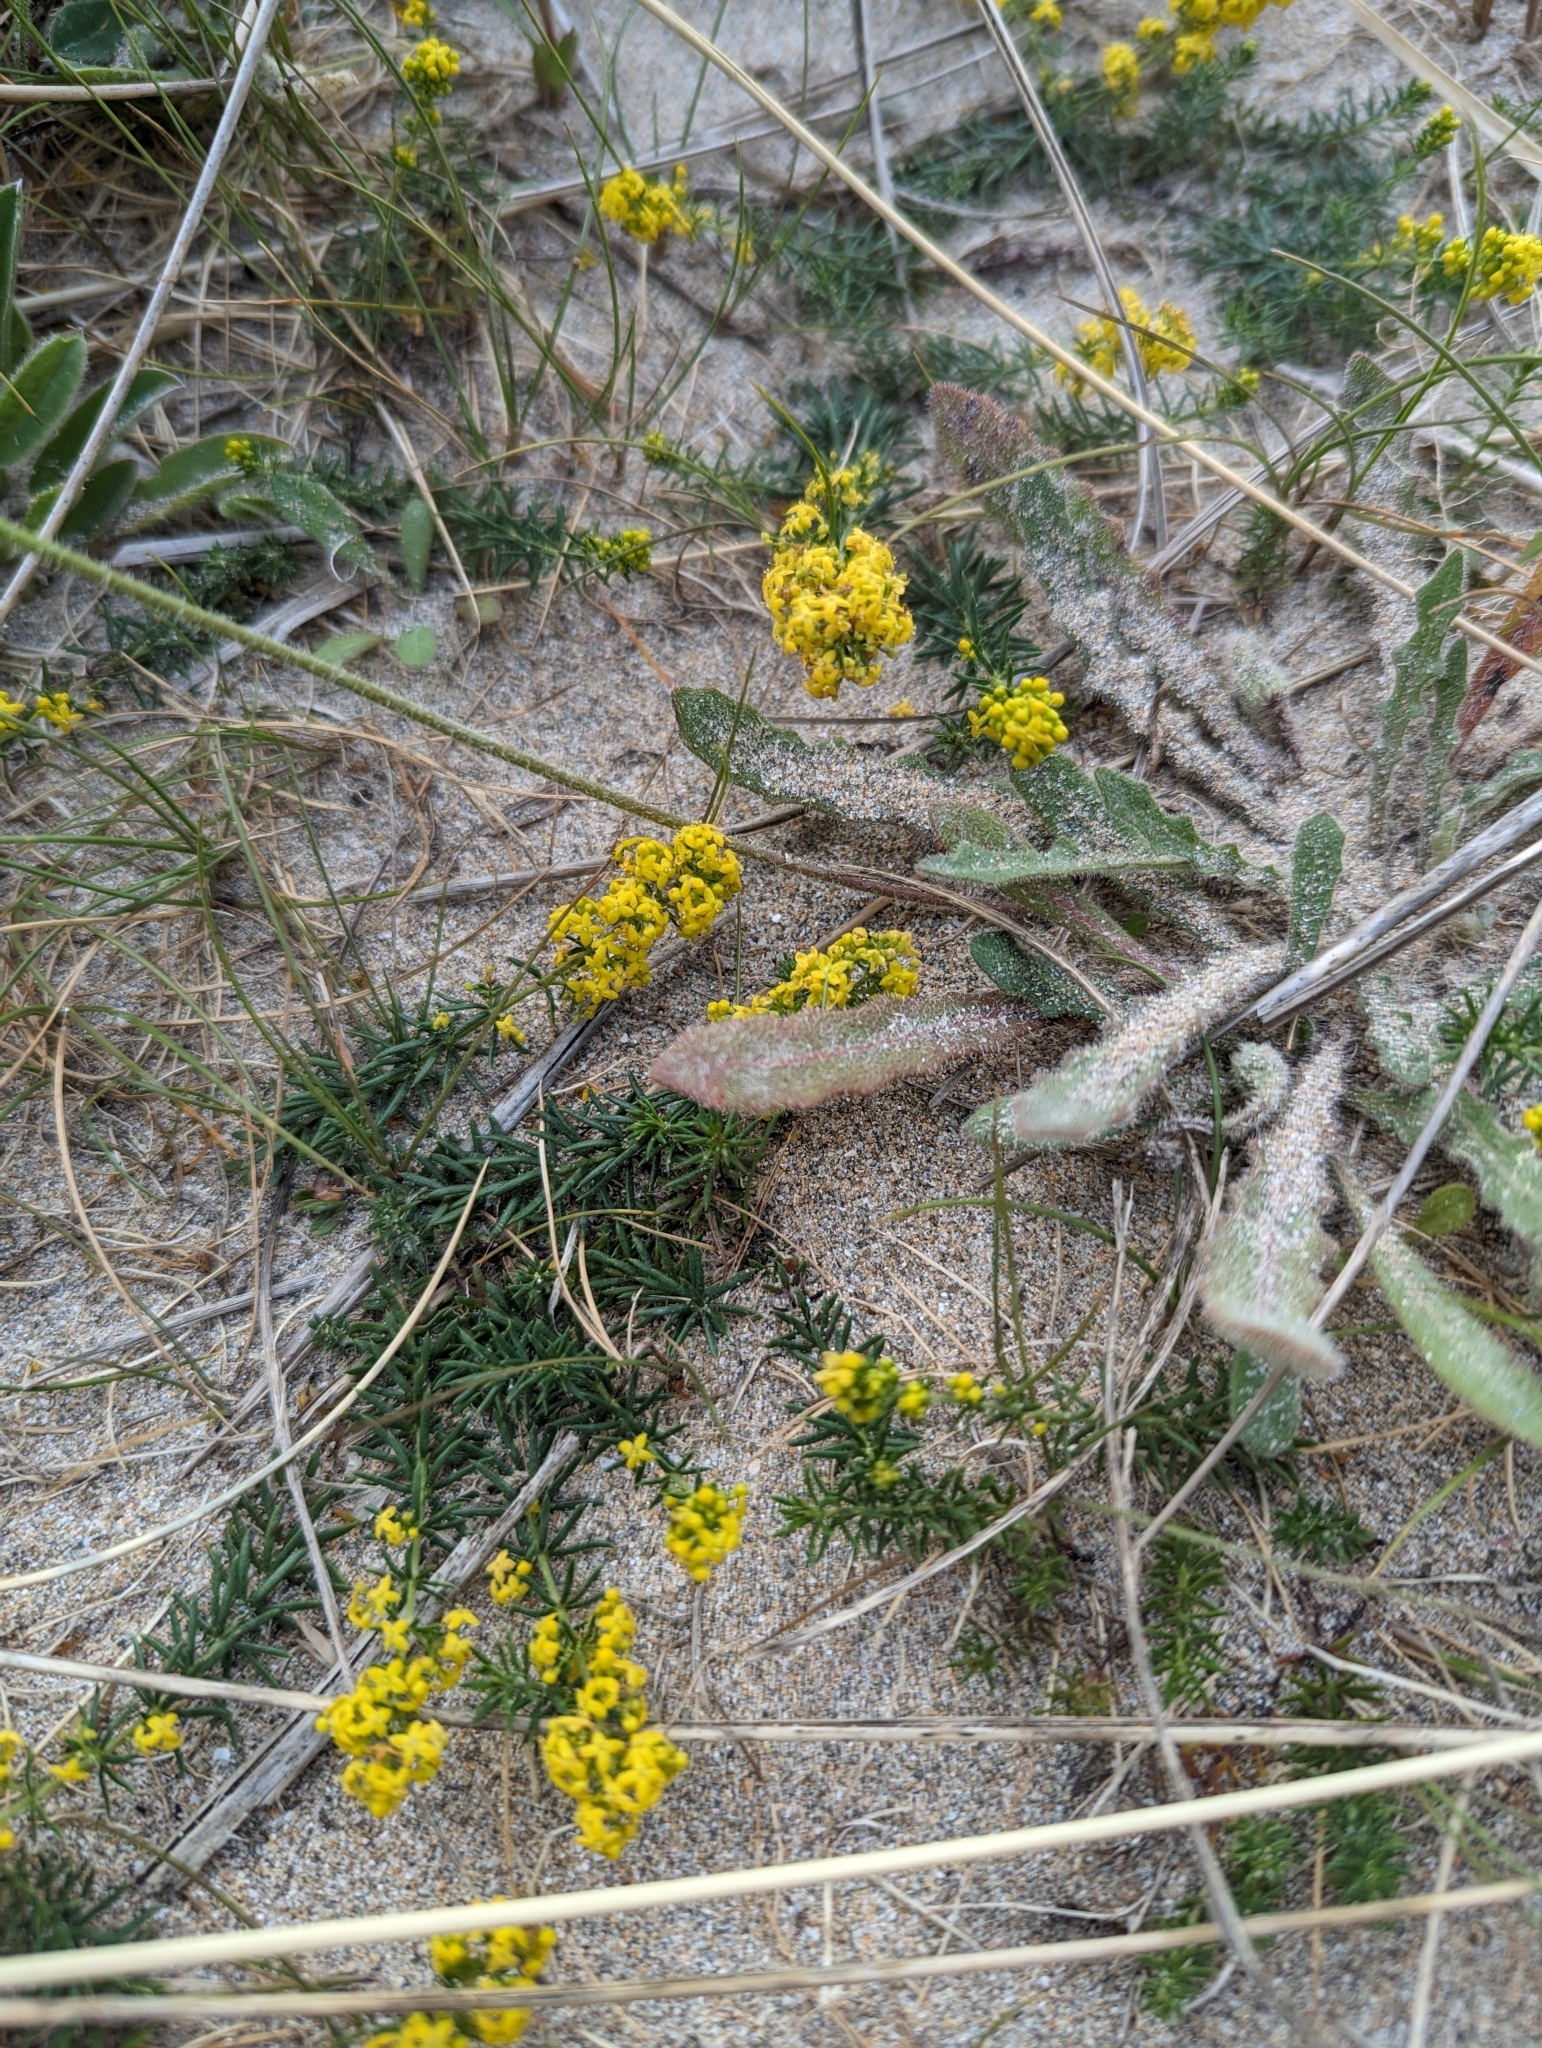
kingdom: Plantae
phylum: Tracheophyta
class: Magnoliopsida
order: Gentianales
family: Rubiaceae
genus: Galium
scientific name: Galium verum
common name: Lady's bedstraw
